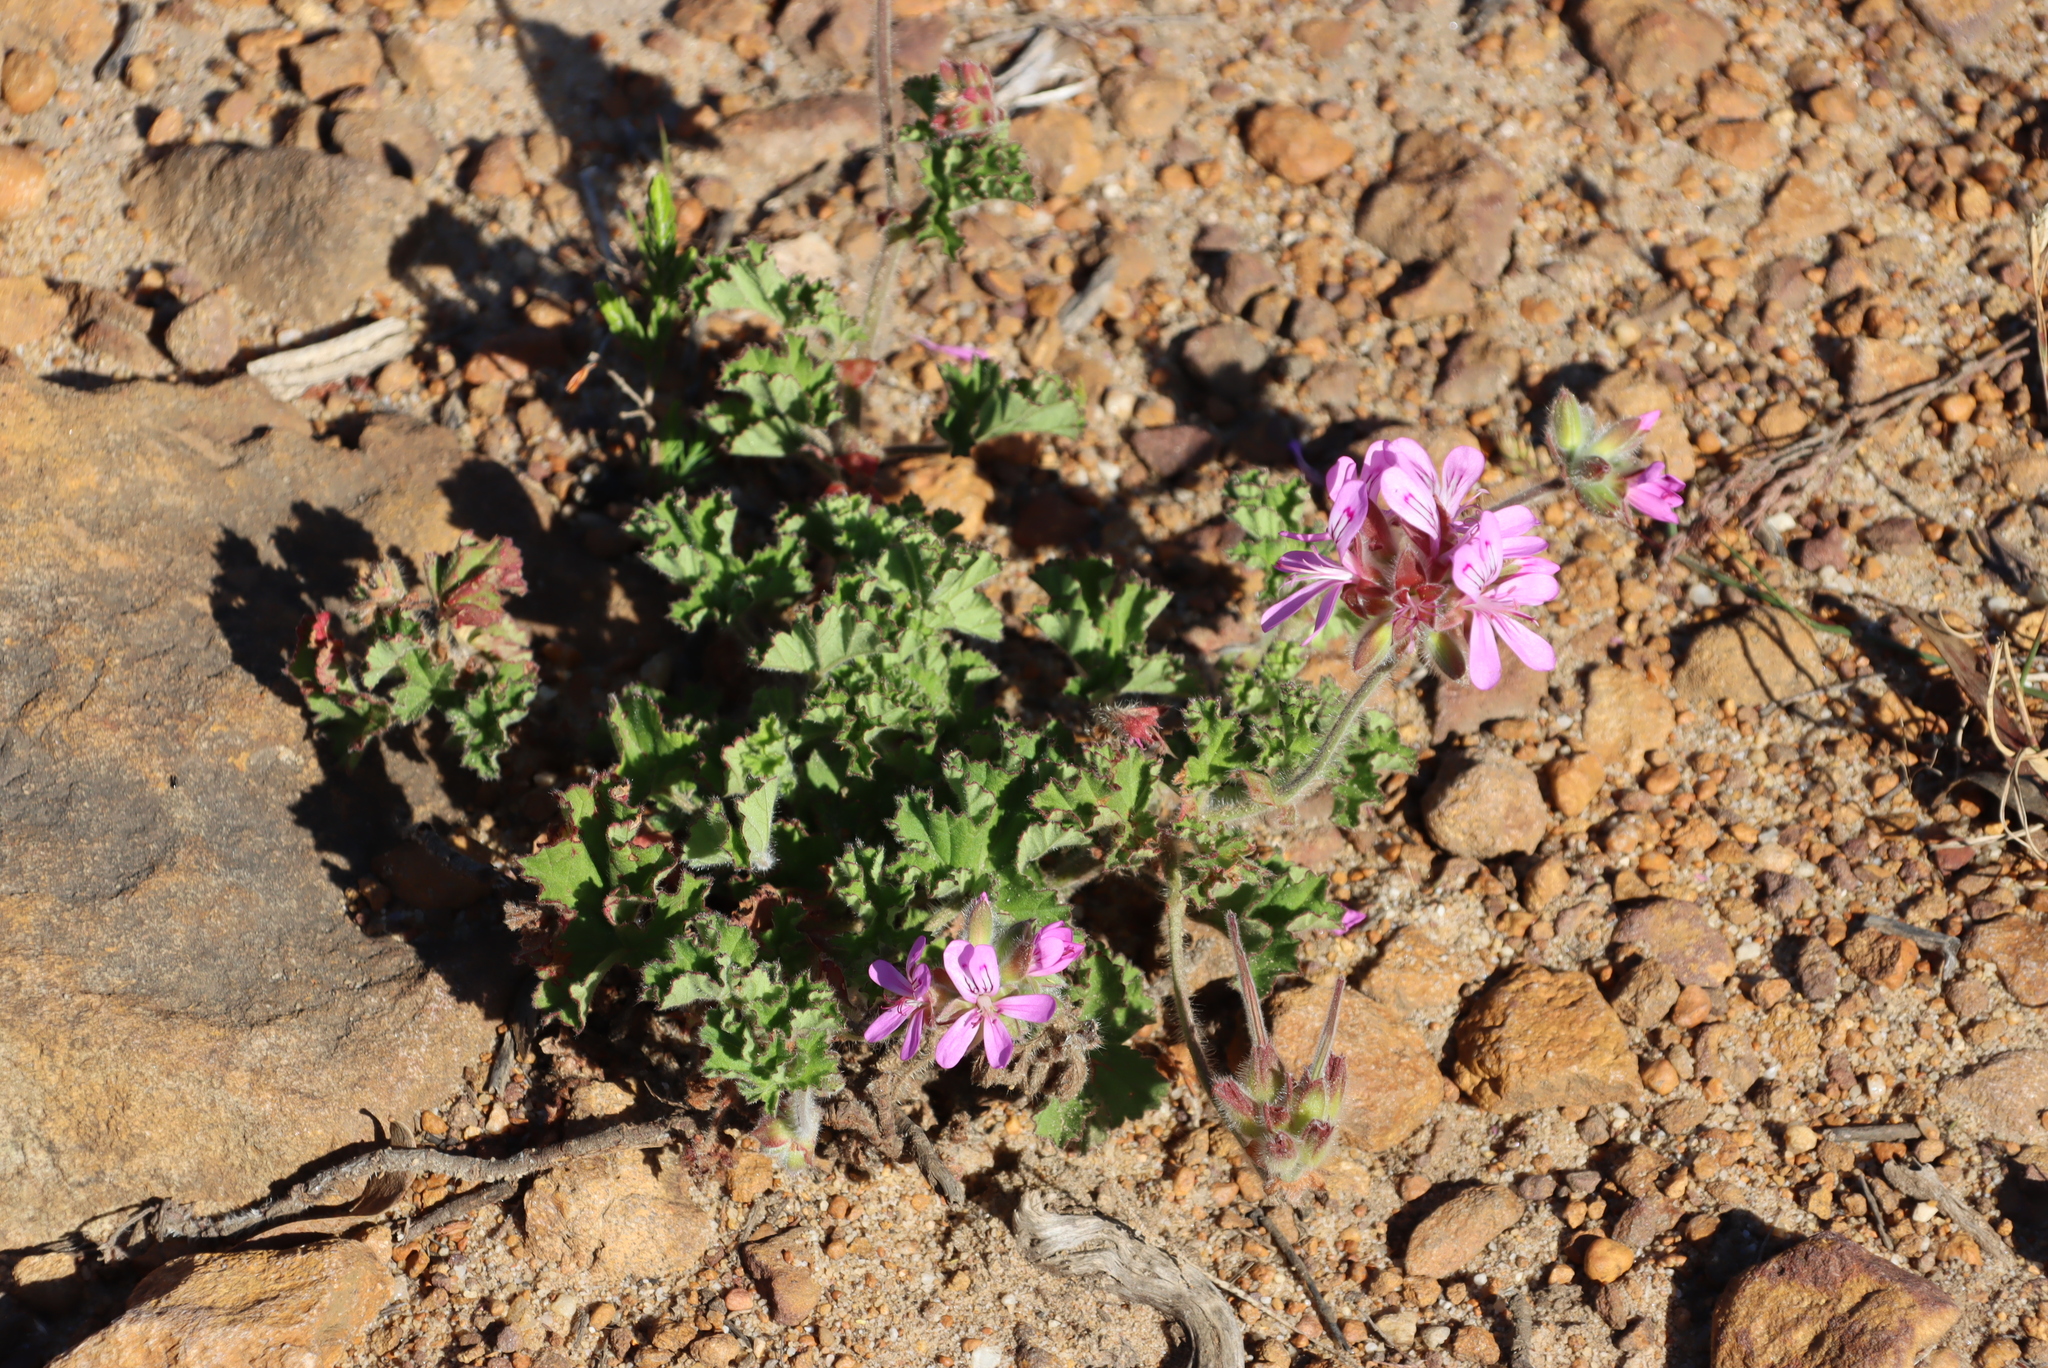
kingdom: Plantae
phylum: Tracheophyta
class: Magnoliopsida
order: Geraniales
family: Geraniaceae
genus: Pelargonium
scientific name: Pelargonium capitatum
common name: Rose scented geranium
